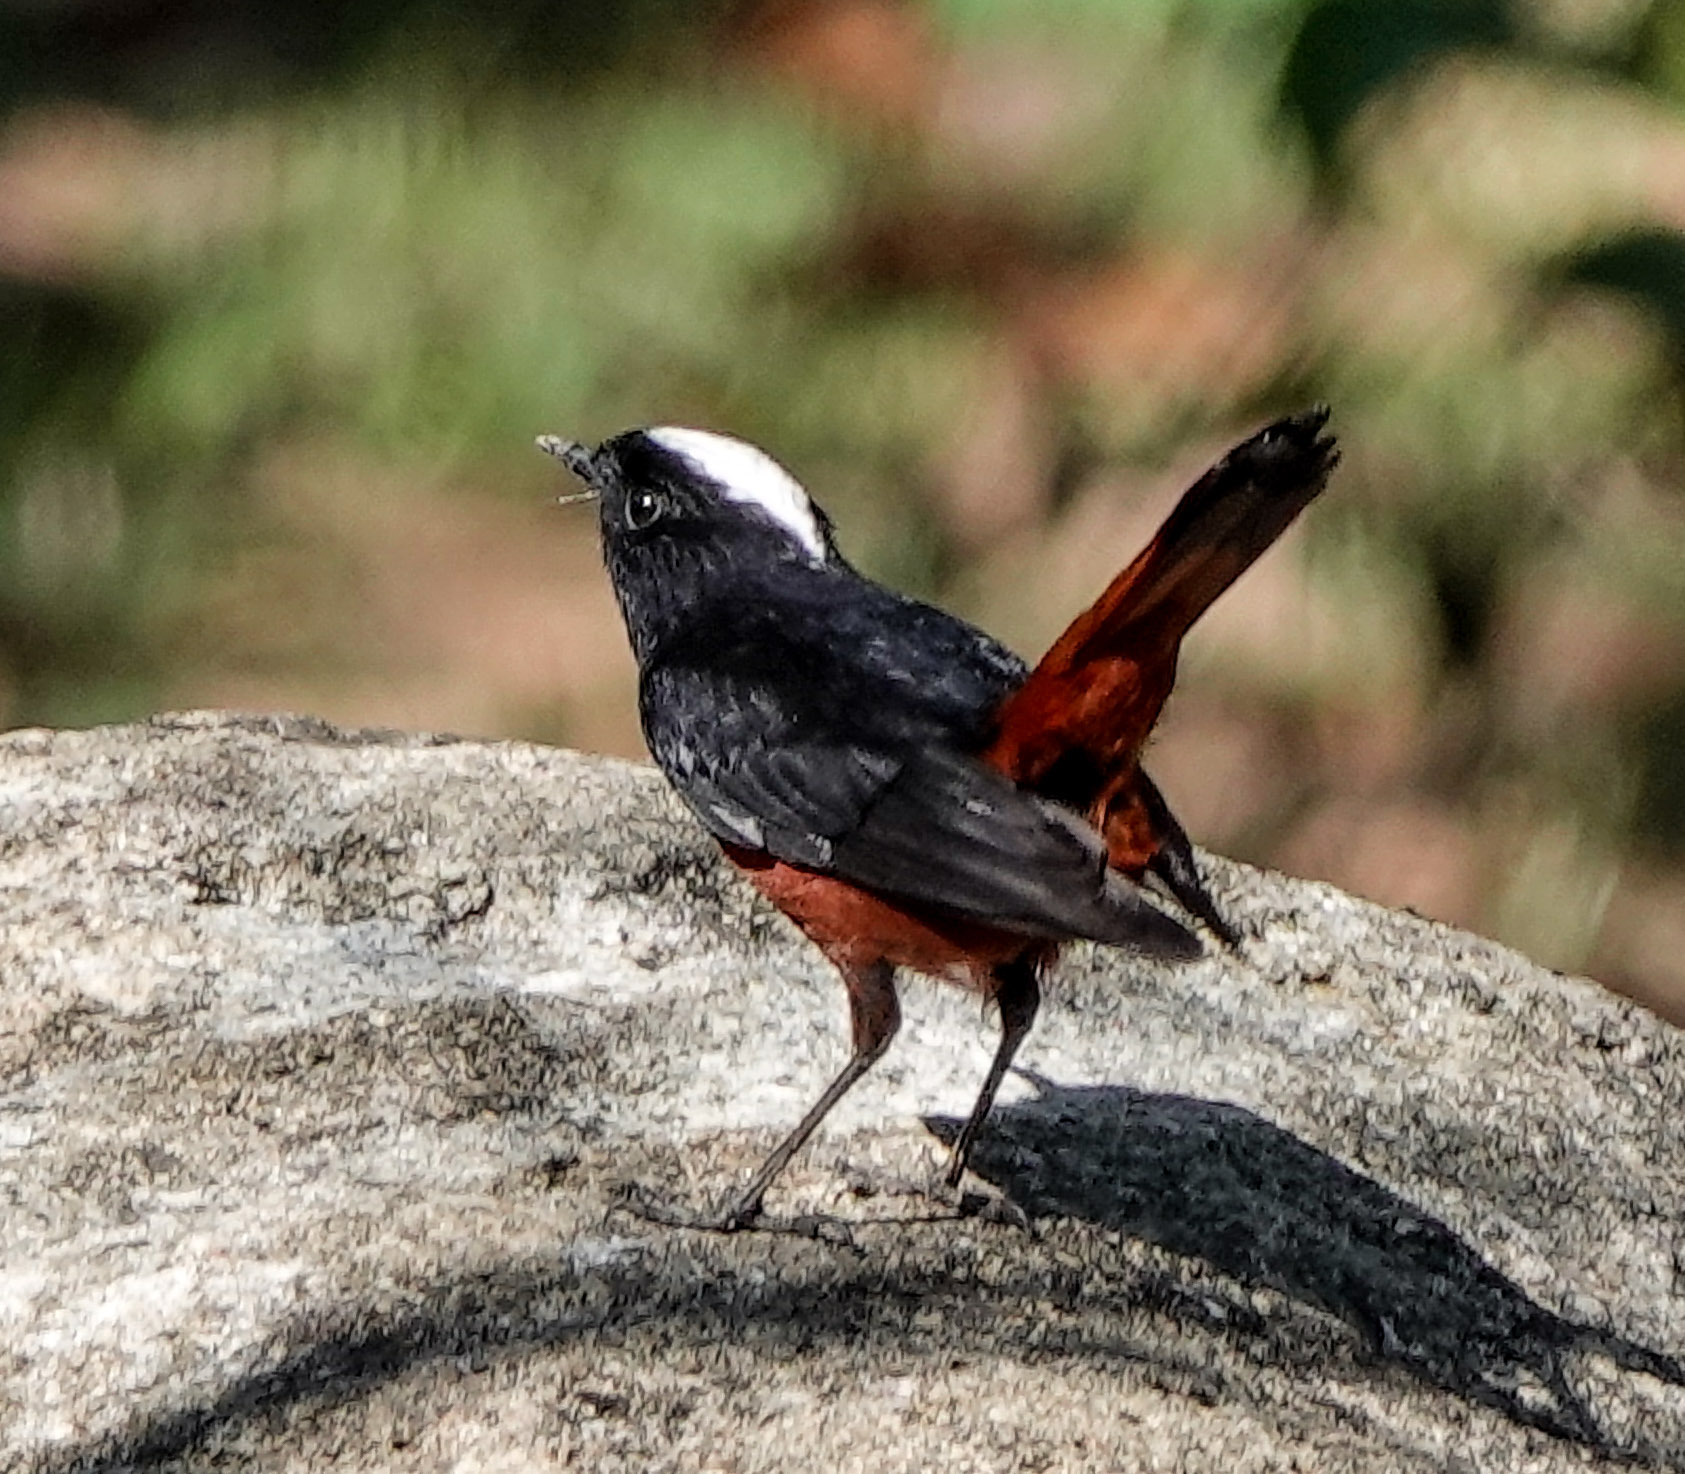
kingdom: Animalia
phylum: Chordata
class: Aves
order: Passeriformes
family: Muscicapidae
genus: Chaimarrornis
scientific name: Chaimarrornis leucocephalus
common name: White-capped redstart
